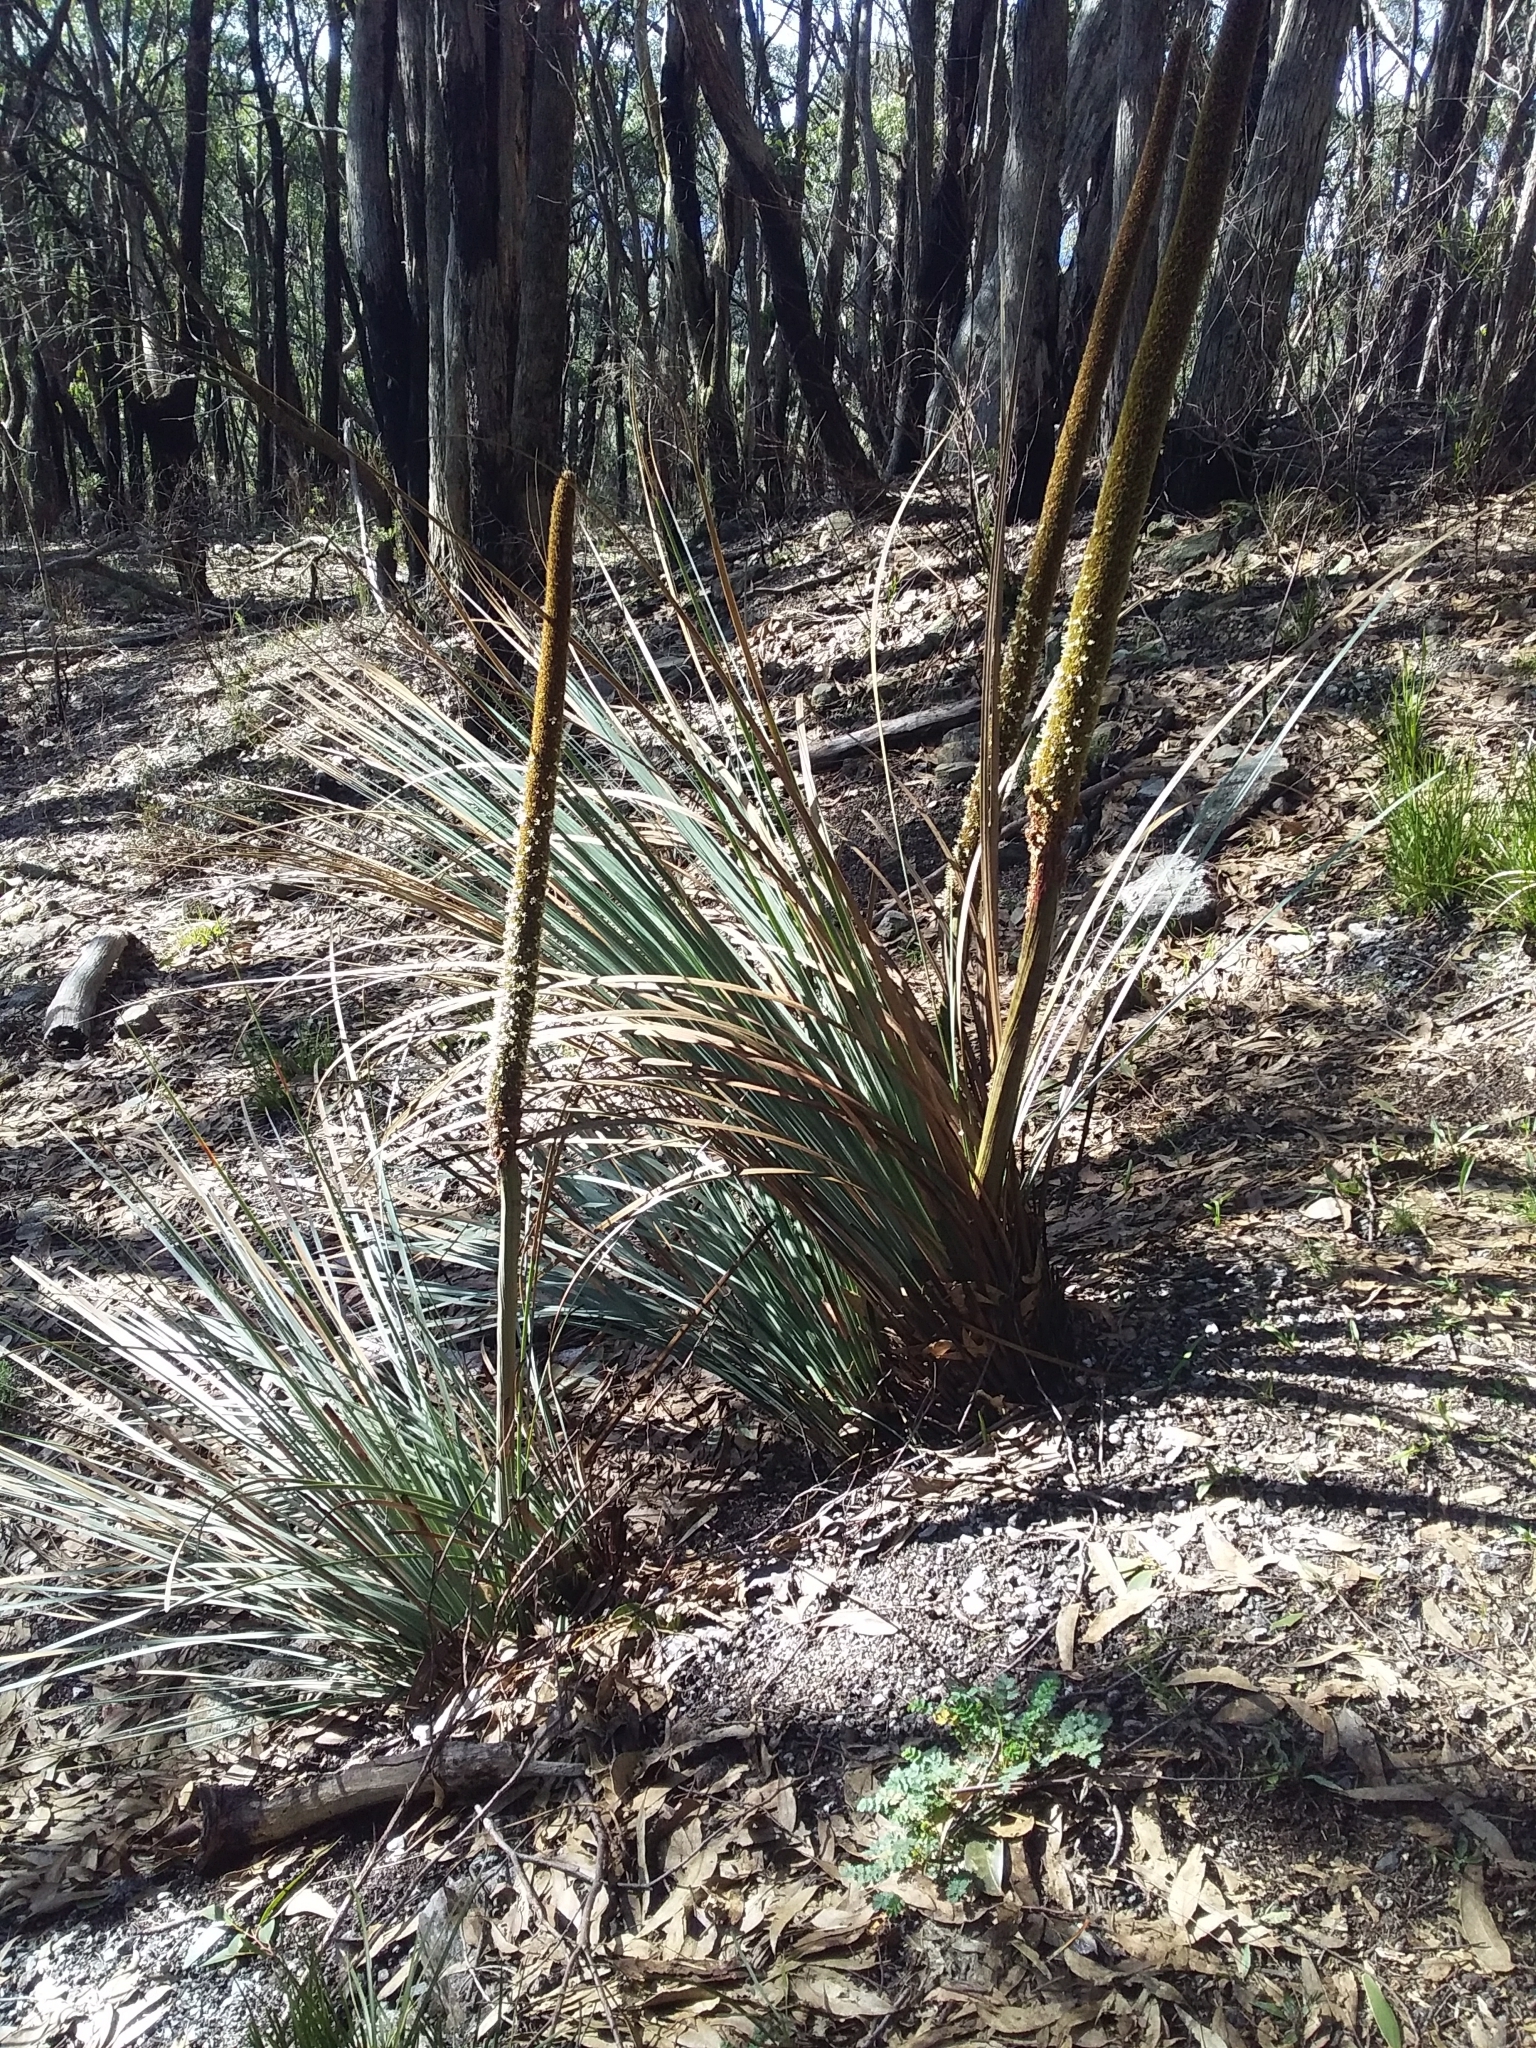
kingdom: Plantae
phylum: Tracheophyta
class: Liliopsida
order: Asparagales
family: Asphodelaceae
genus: Xanthorrhoea
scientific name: Xanthorrhoea semiplana
